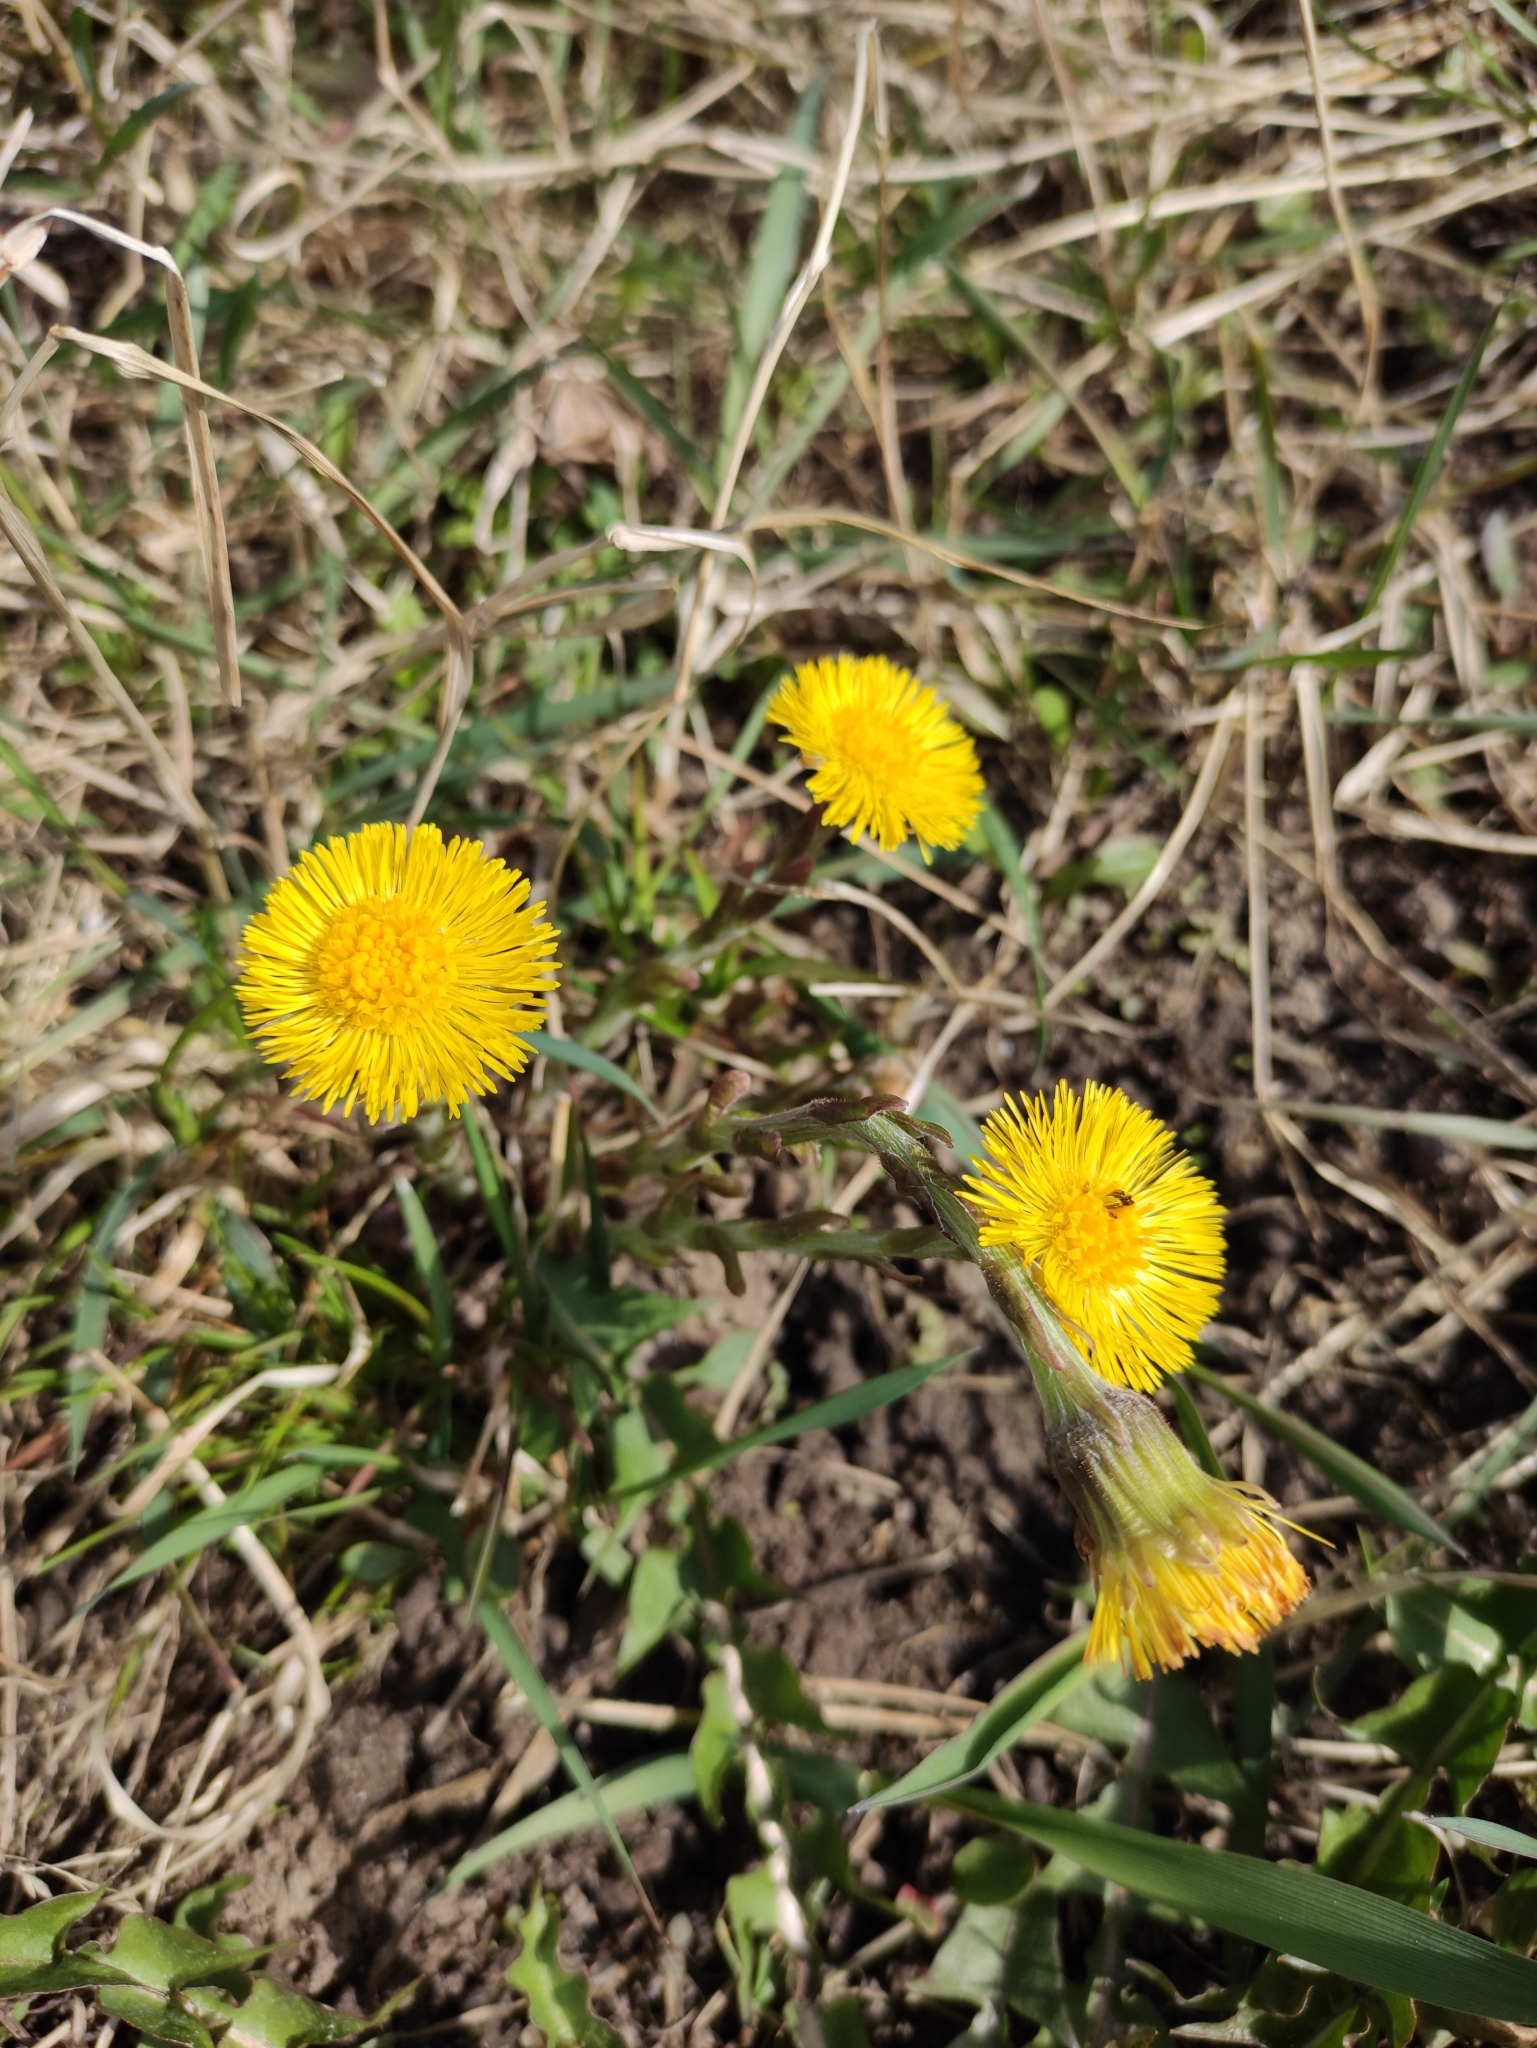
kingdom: Plantae
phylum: Tracheophyta
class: Magnoliopsida
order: Asterales
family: Asteraceae
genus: Tussilago
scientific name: Tussilago farfara
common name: Coltsfoot
